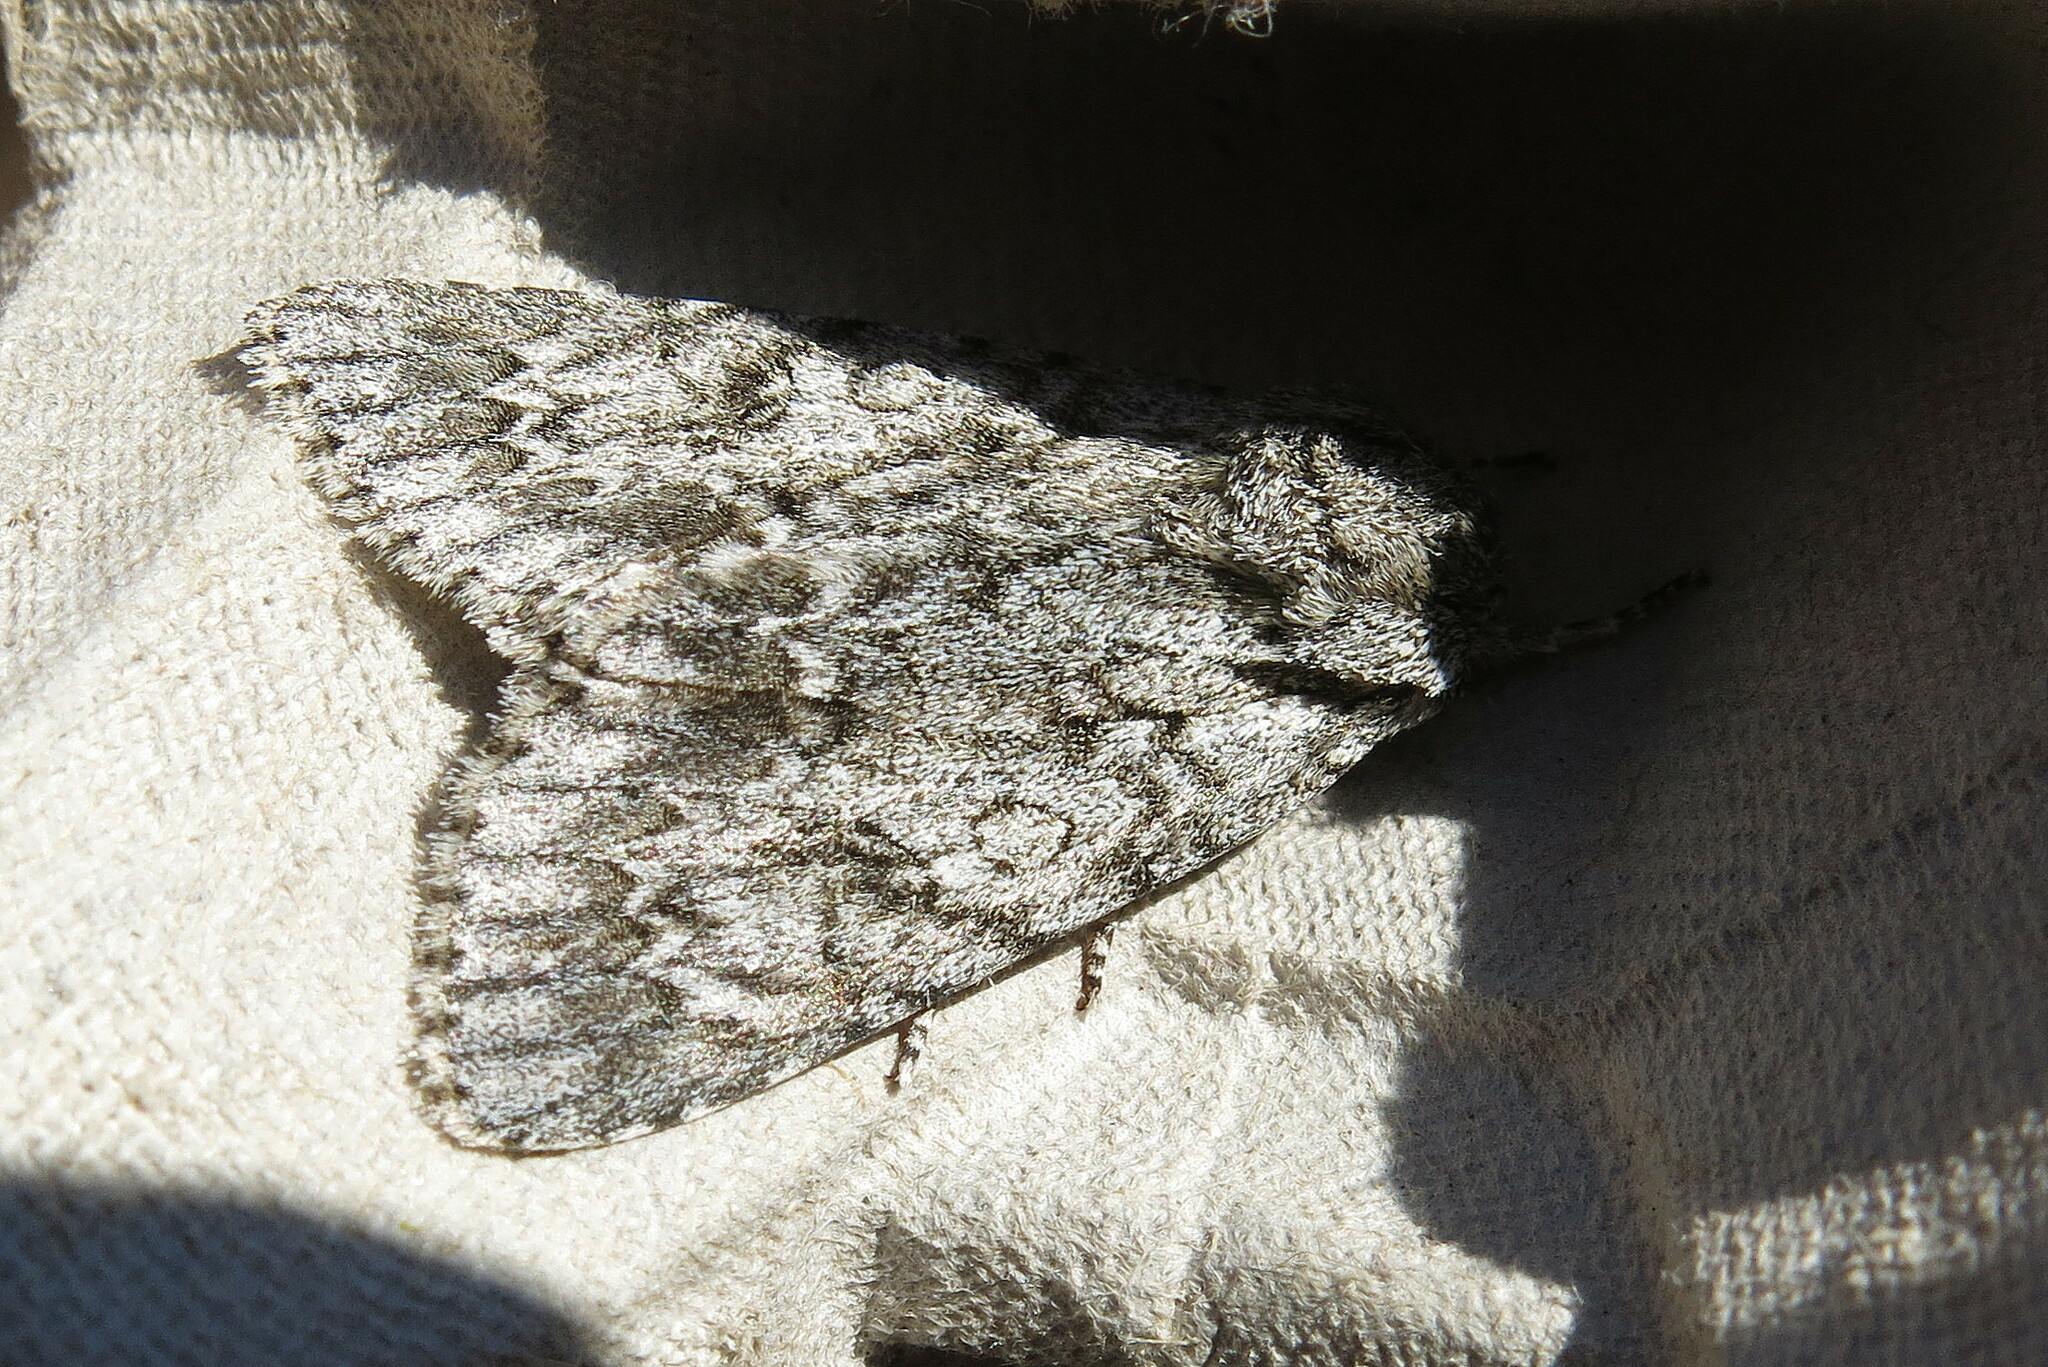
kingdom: Animalia
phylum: Arthropoda
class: Insecta
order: Lepidoptera
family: Noctuidae
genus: Acronicta
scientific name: Acronicta aceris
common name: Sycamore
